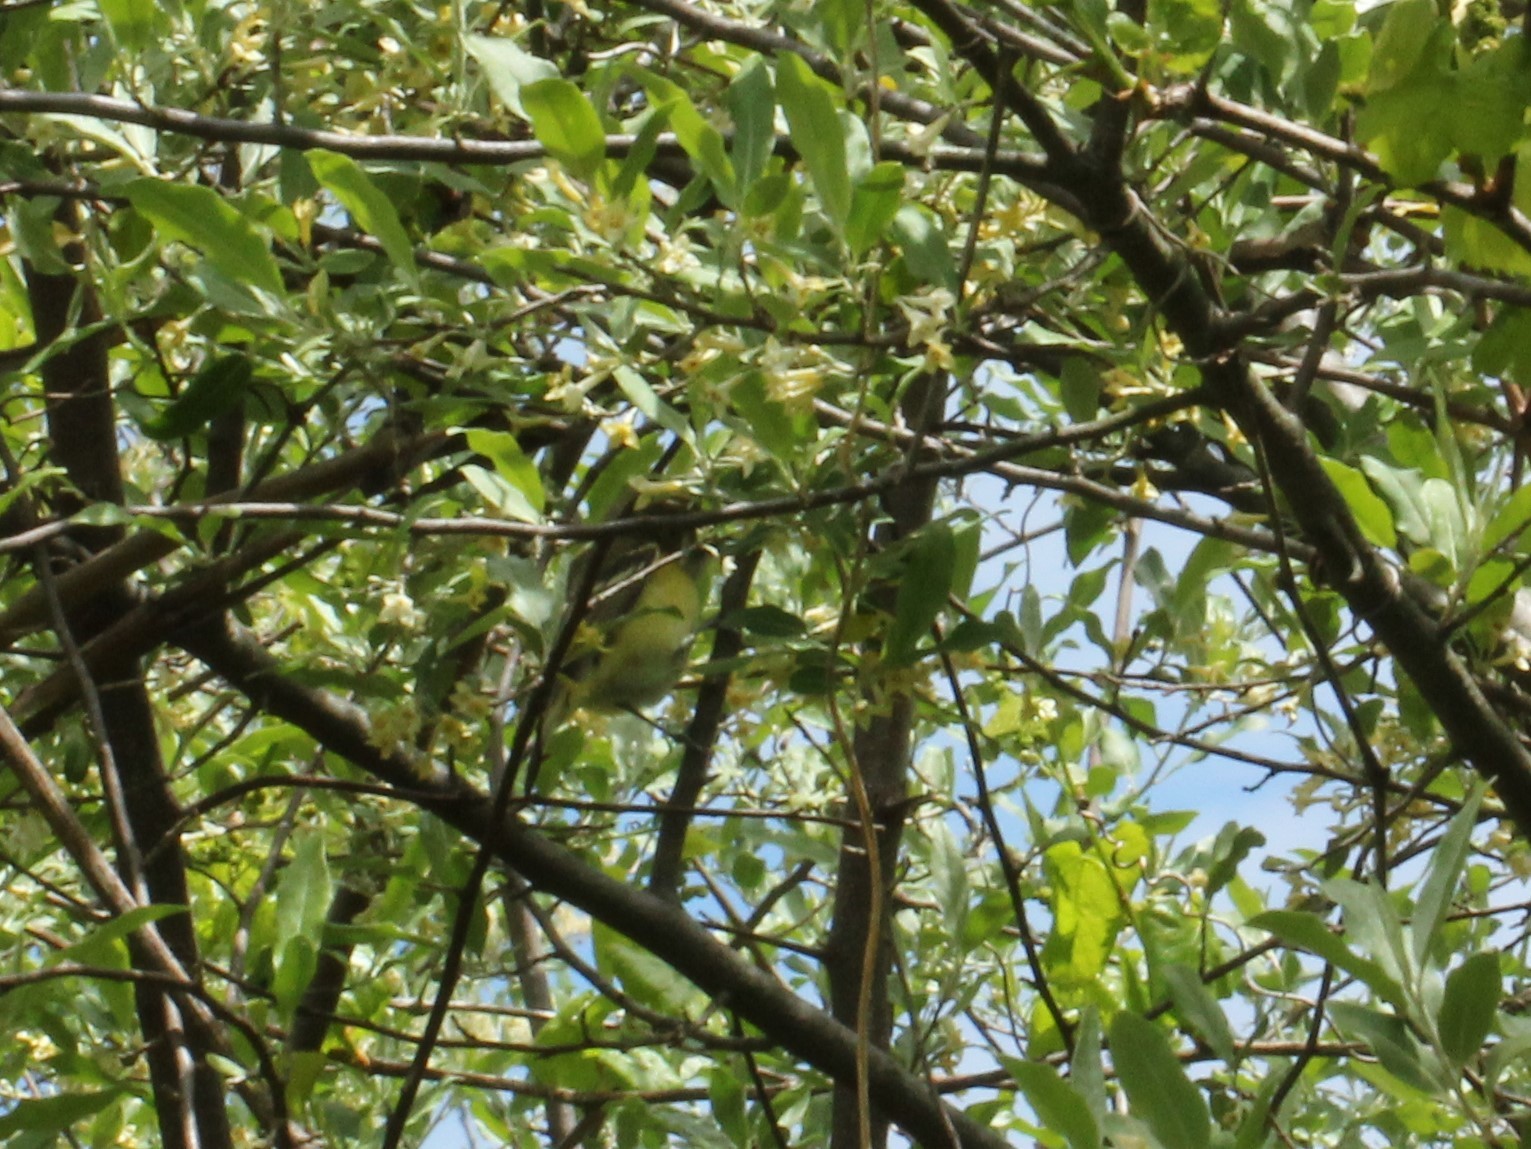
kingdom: Animalia
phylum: Chordata
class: Aves
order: Passeriformes
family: Vireonidae
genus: Vireo
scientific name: Vireo griseus
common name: White-eyed vireo
